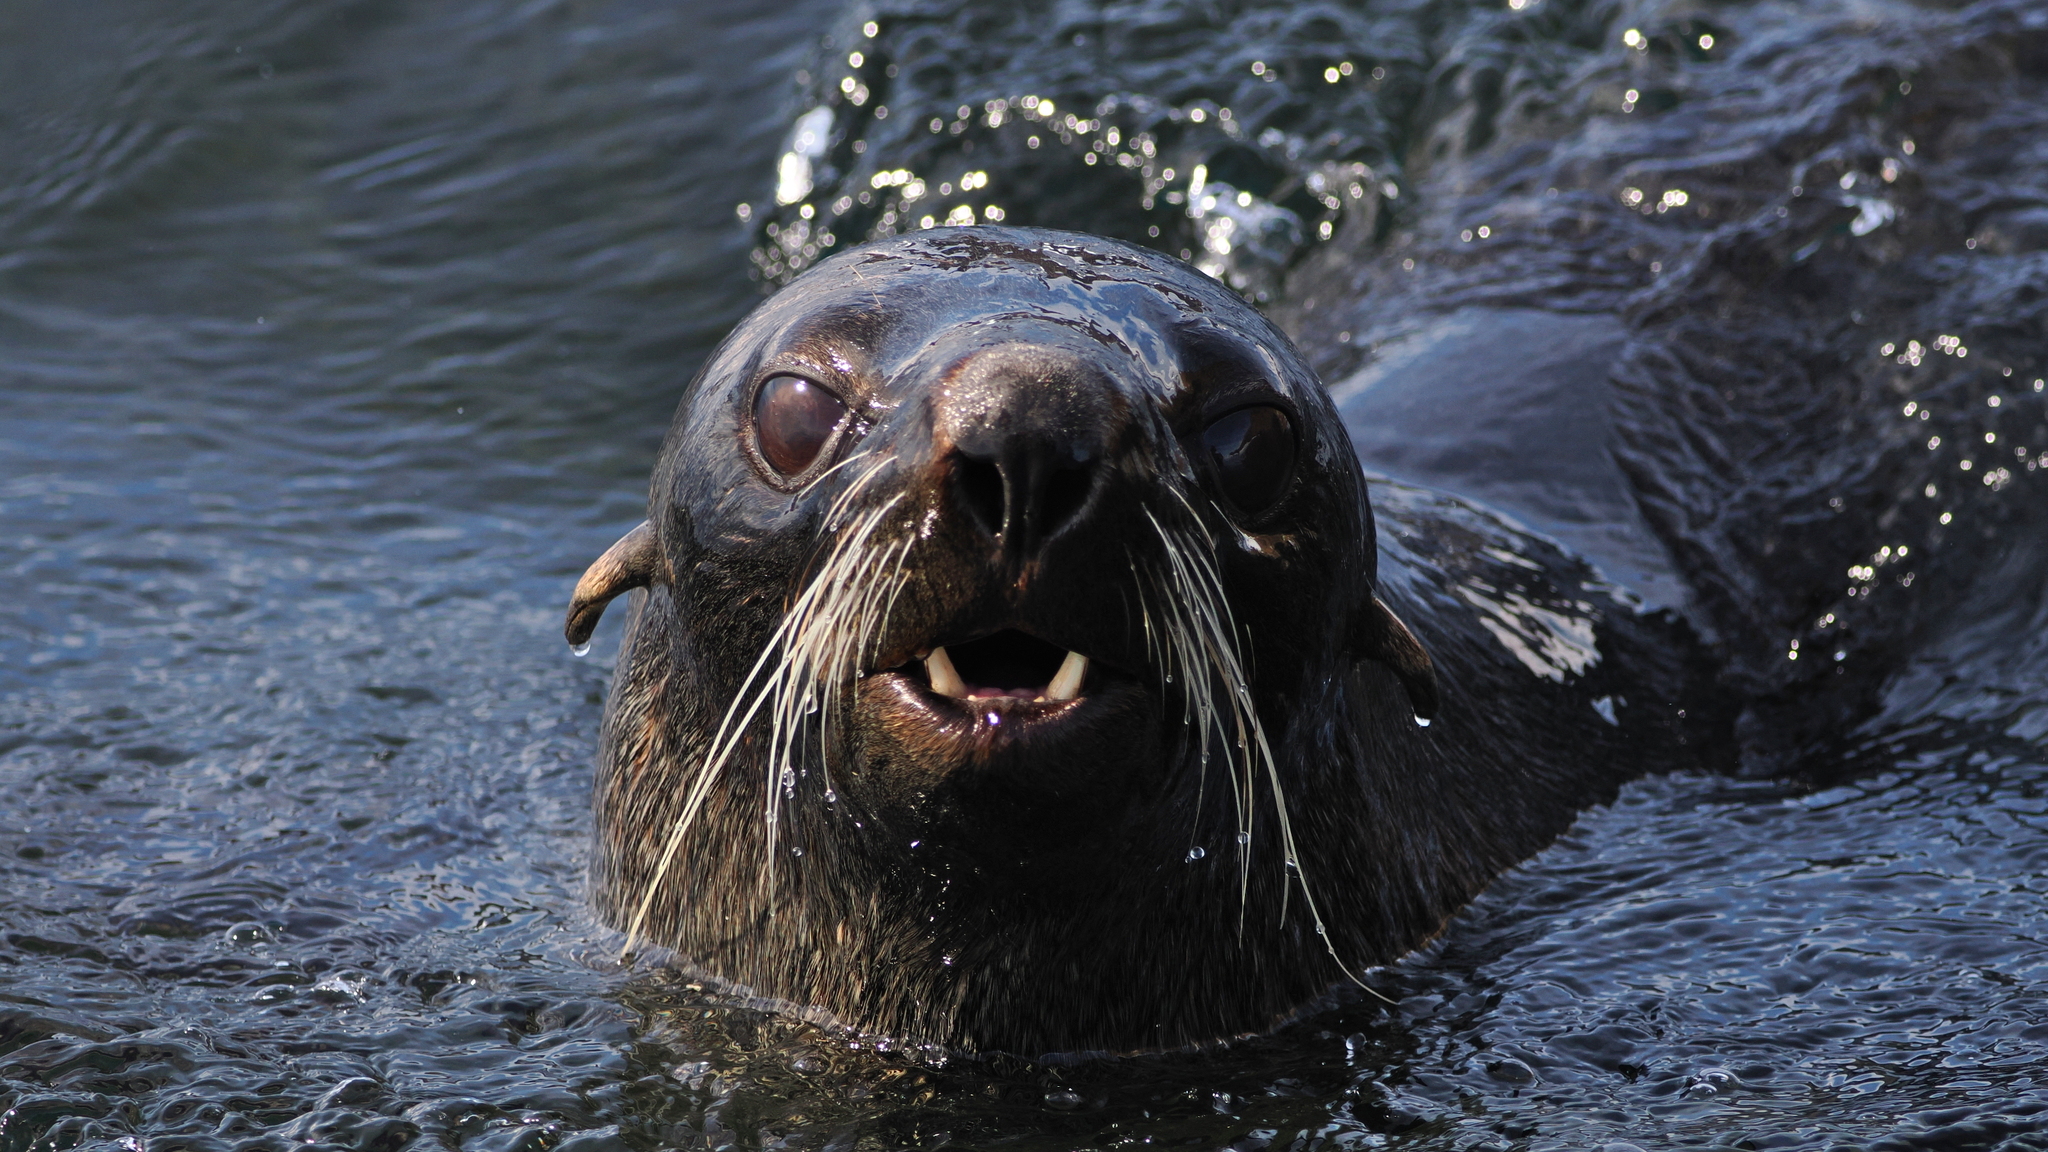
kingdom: Animalia
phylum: Chordata
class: Mammalia
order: Carnivora
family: Otariidae
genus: Arctocephalus
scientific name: Arctocephalus gazella
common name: Antarctic fur seal
